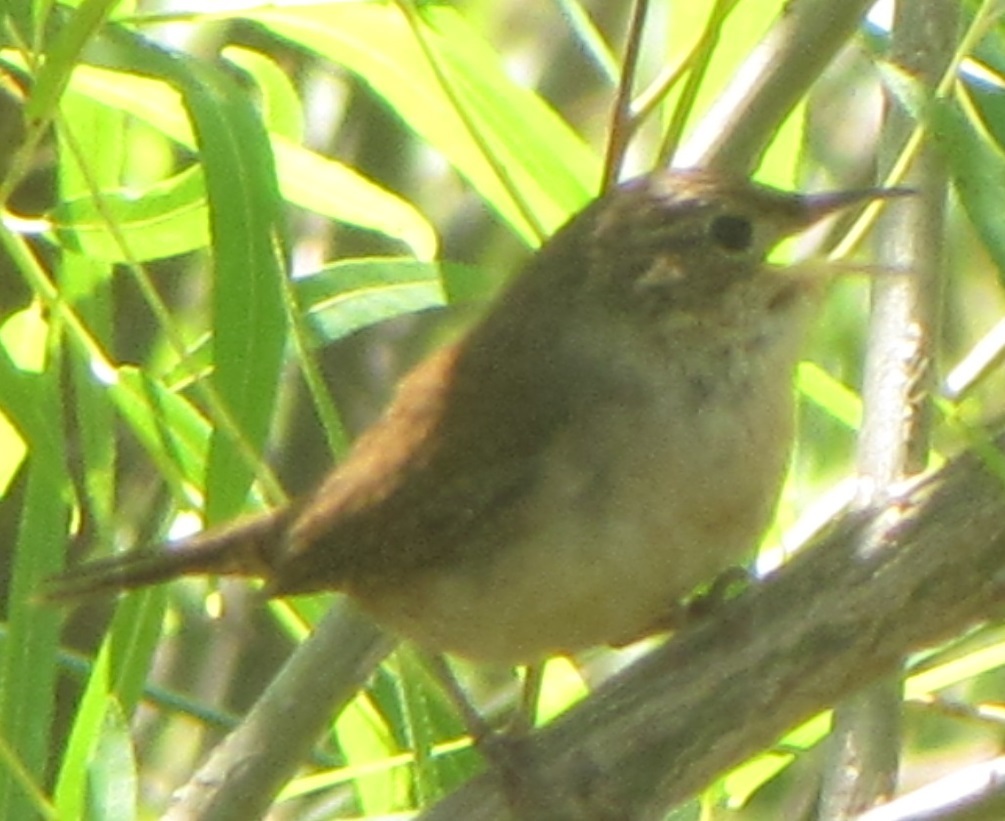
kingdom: Animalia
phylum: Chordata
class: Aves
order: Passeriformes
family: Troglodytidae
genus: Troglodytes
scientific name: Troglodytes aedon
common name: House wren
